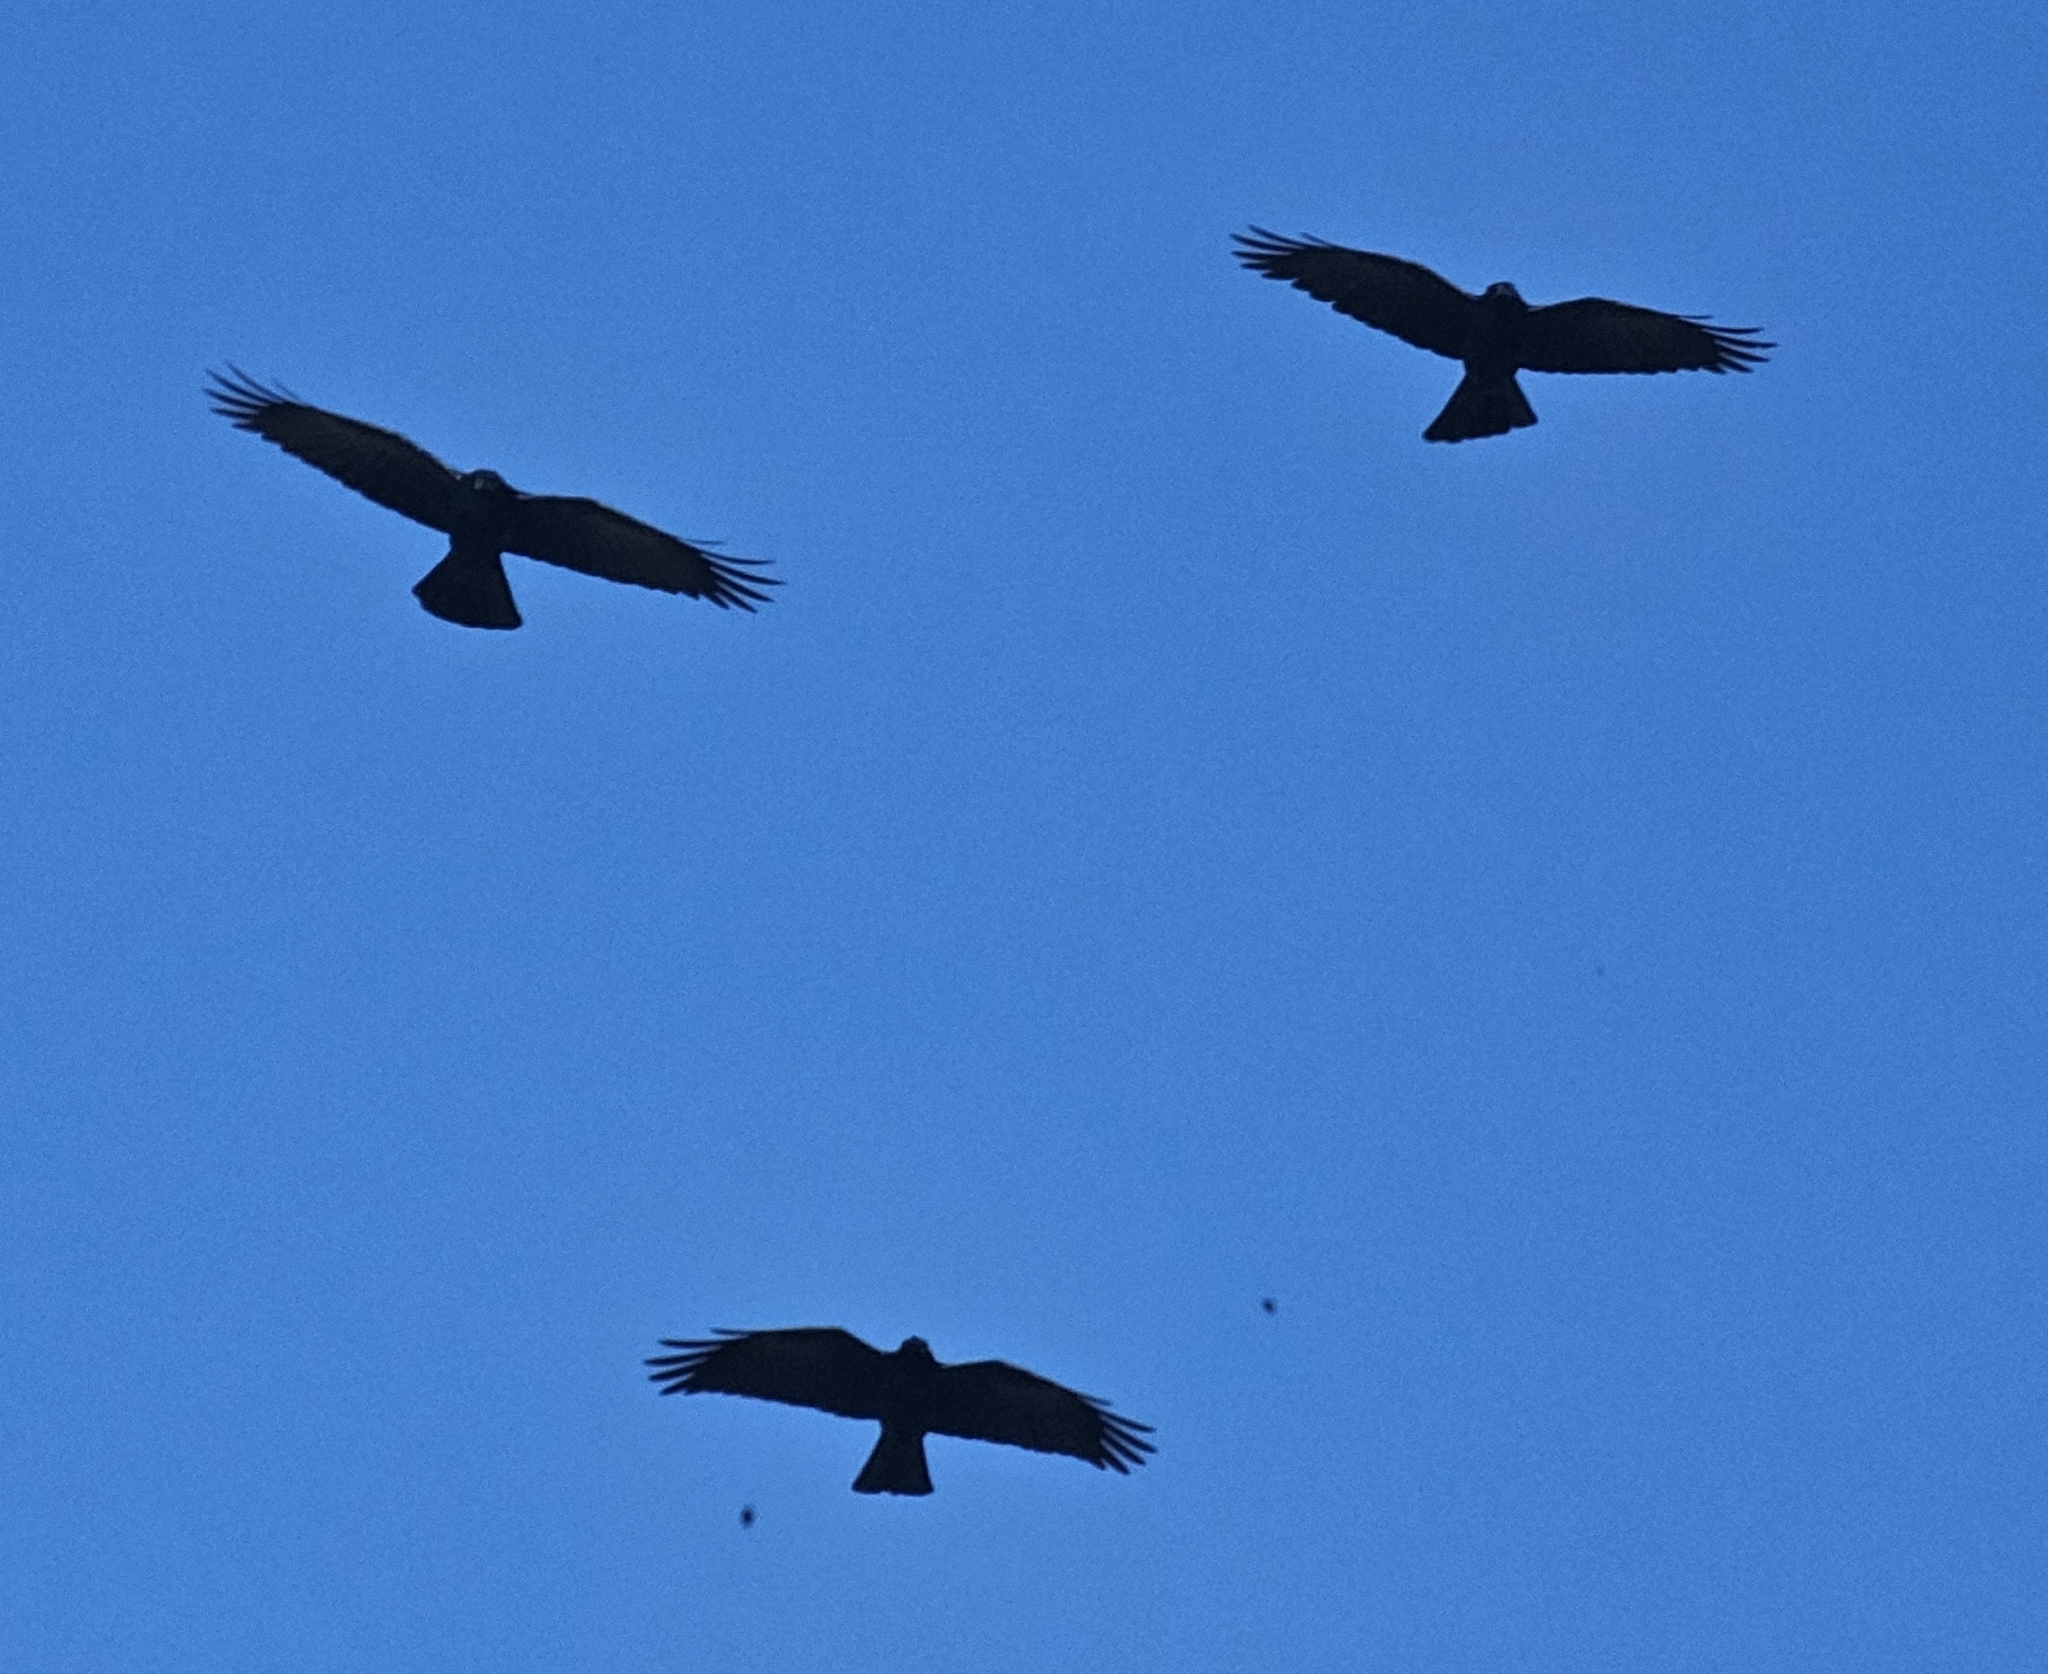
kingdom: Animalia
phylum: Chordata
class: Aves
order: Passeriformes
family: Corvidae
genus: Corvus
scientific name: Corvus imparatus
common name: Tamaulipas crow
